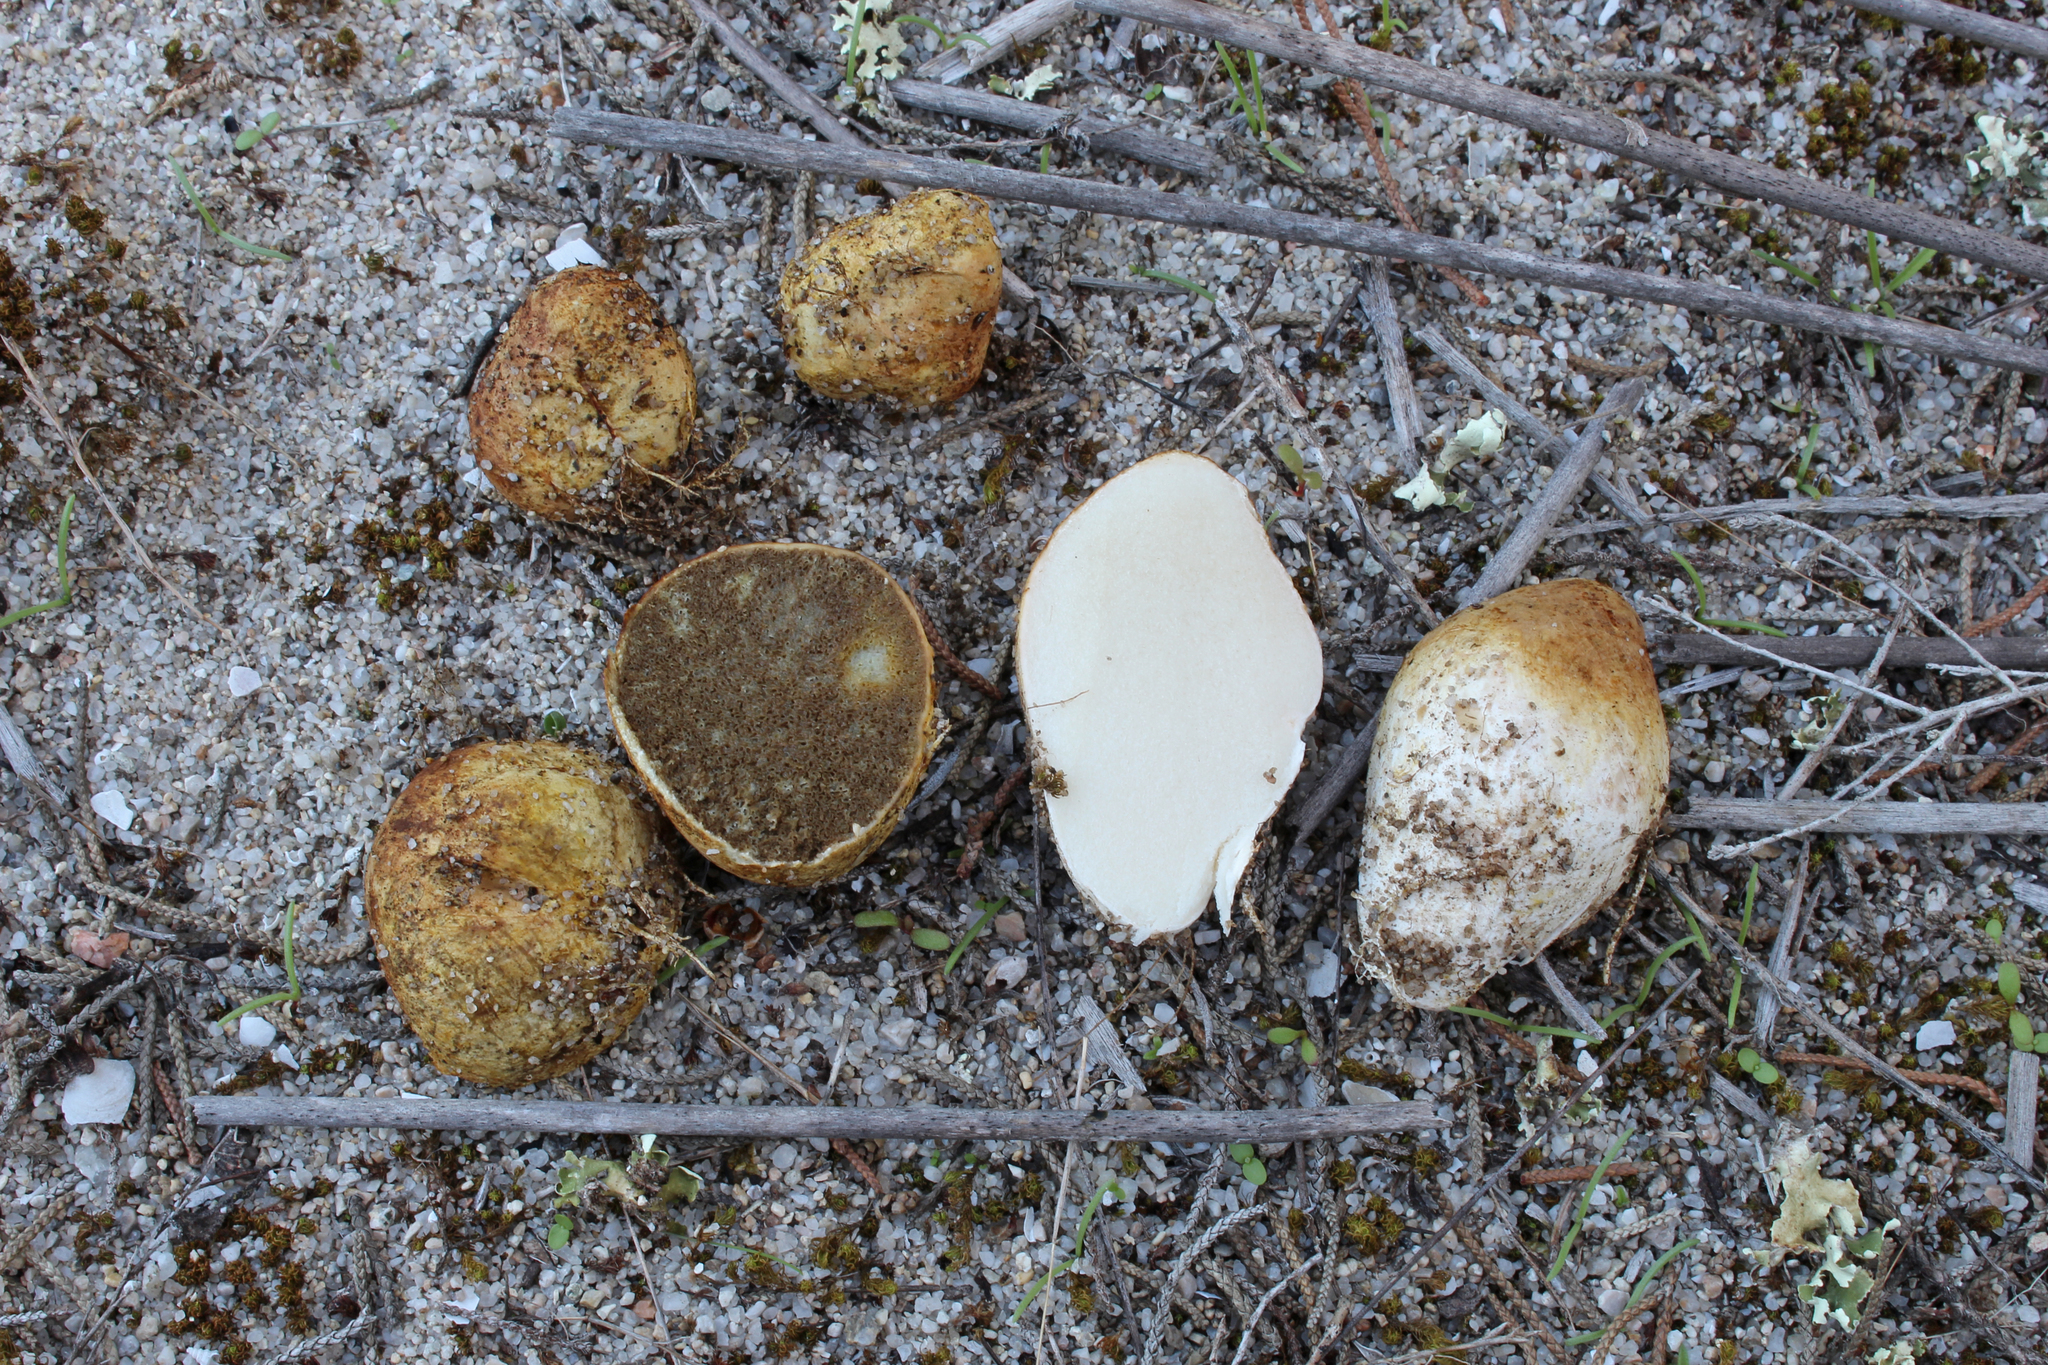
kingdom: Fungi
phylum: Basidiomycota
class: Agaricomycetes
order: Boletales
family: Rhizopogonaceae
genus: Rhizopogon
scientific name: Rhizopogon luteolus
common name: Yellow false truffle
